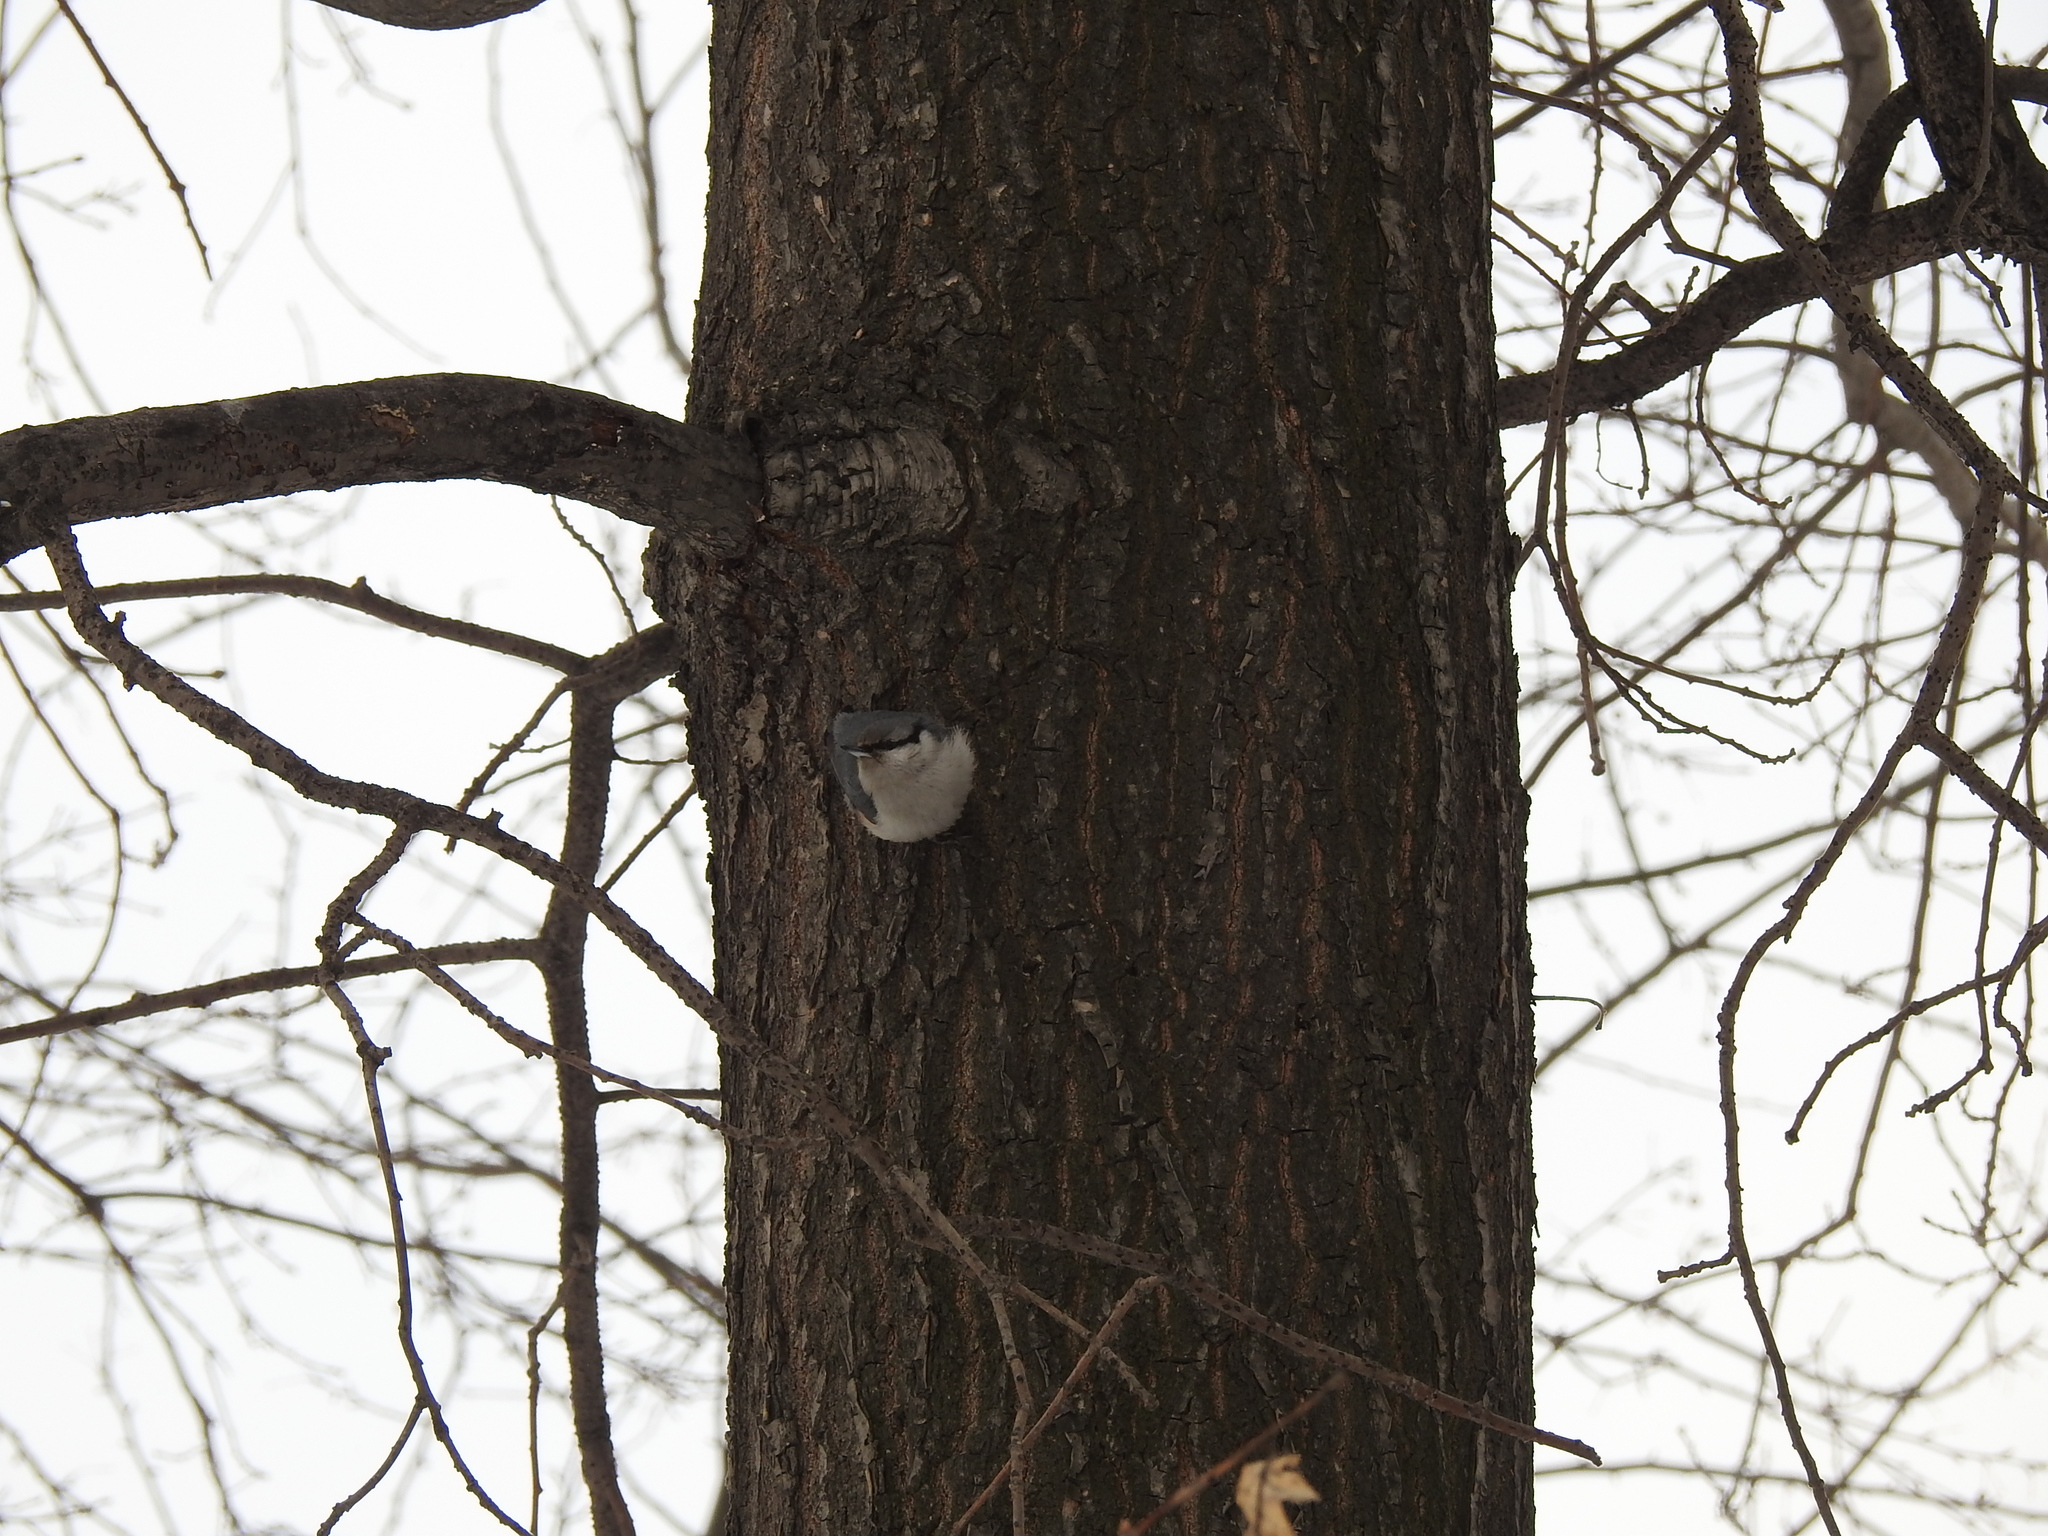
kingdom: Animalia
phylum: Chordata
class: Aves
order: Passeriformes
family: Sittidae
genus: Sitta
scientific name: Sitta europaea
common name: Eurasian nuthatch
